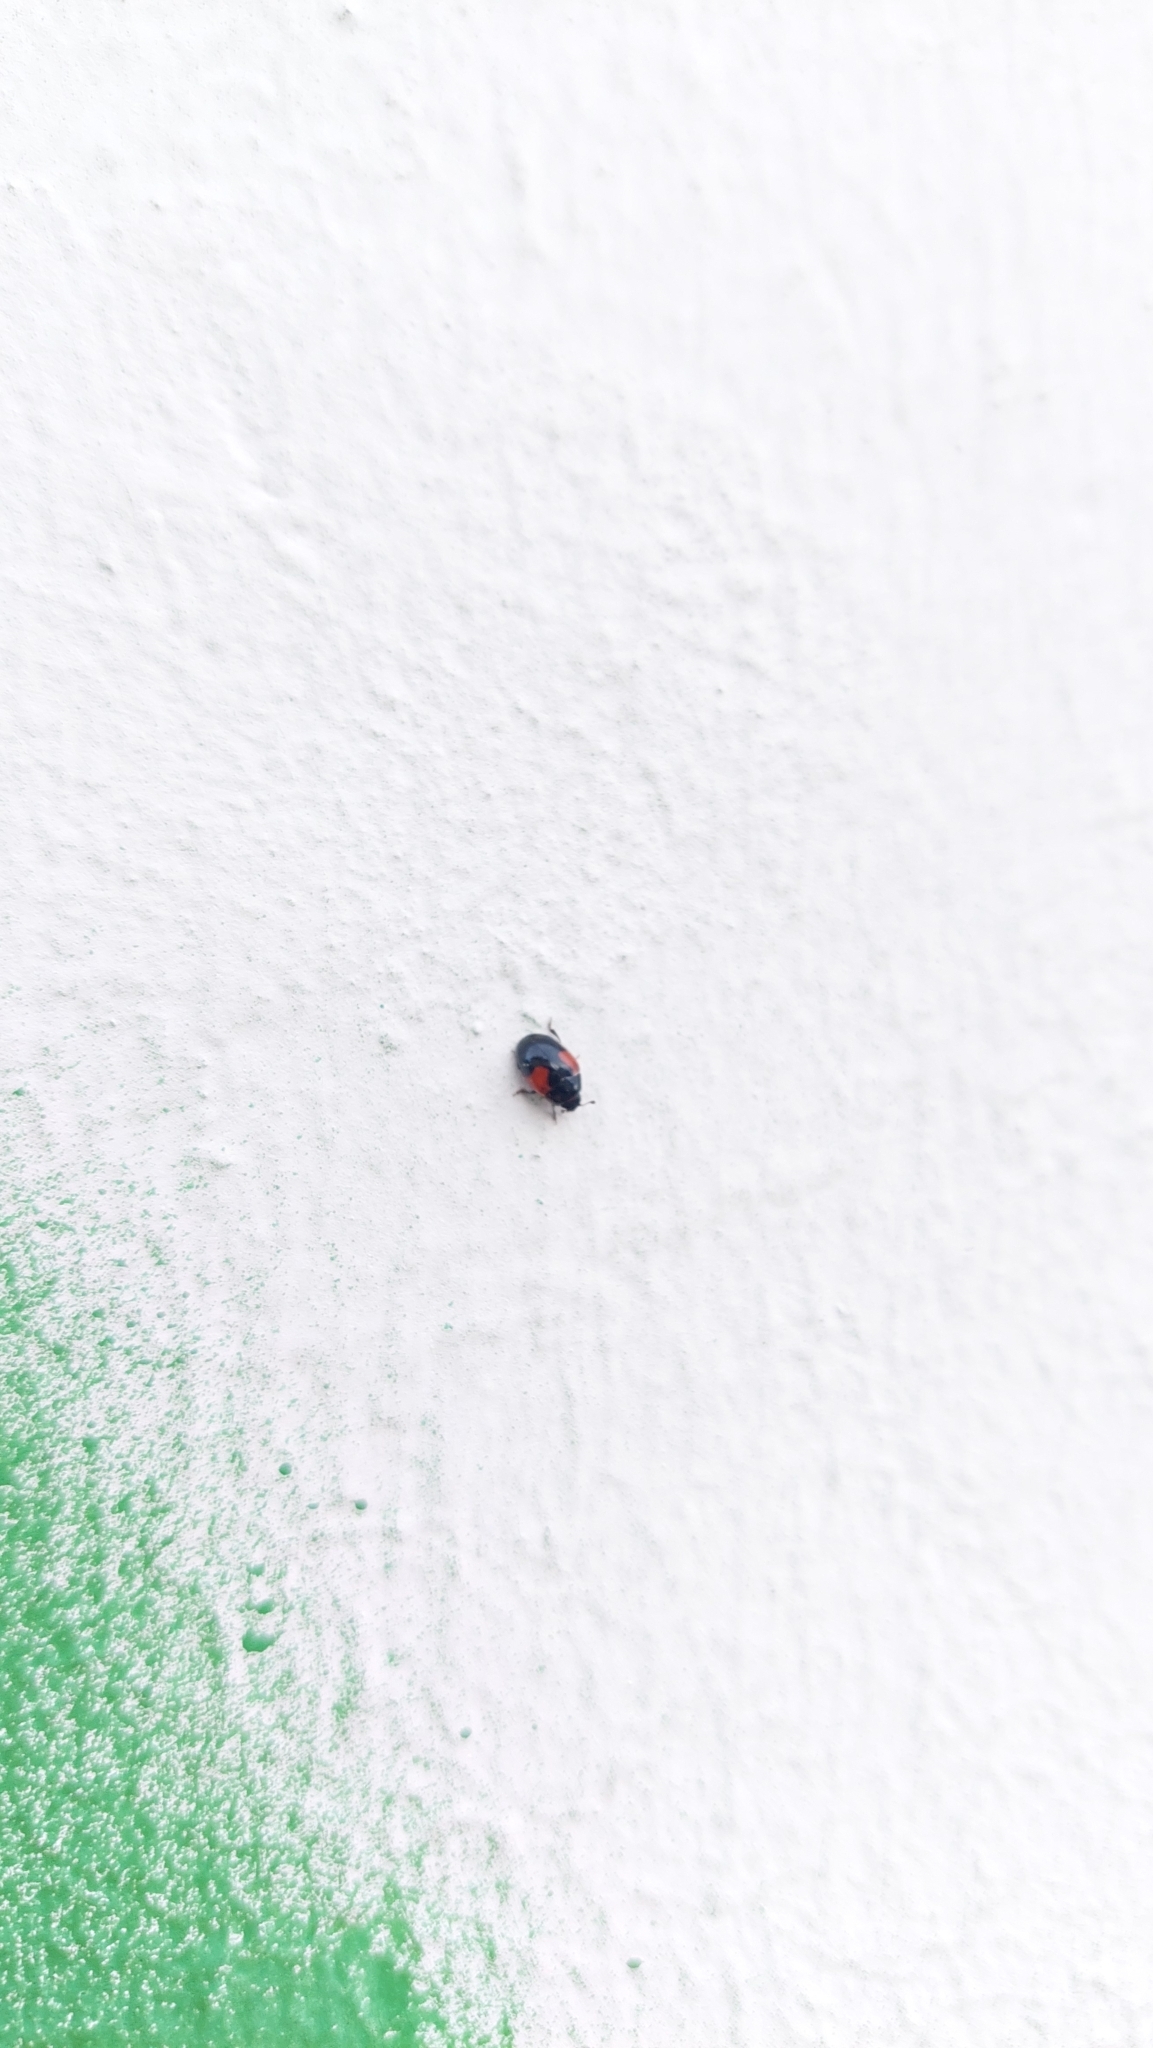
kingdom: Animalia
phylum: Arthropoda
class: Insecta
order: Coleoptera
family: Erotylidae
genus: Tritoma
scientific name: Tritoma bipustulata
